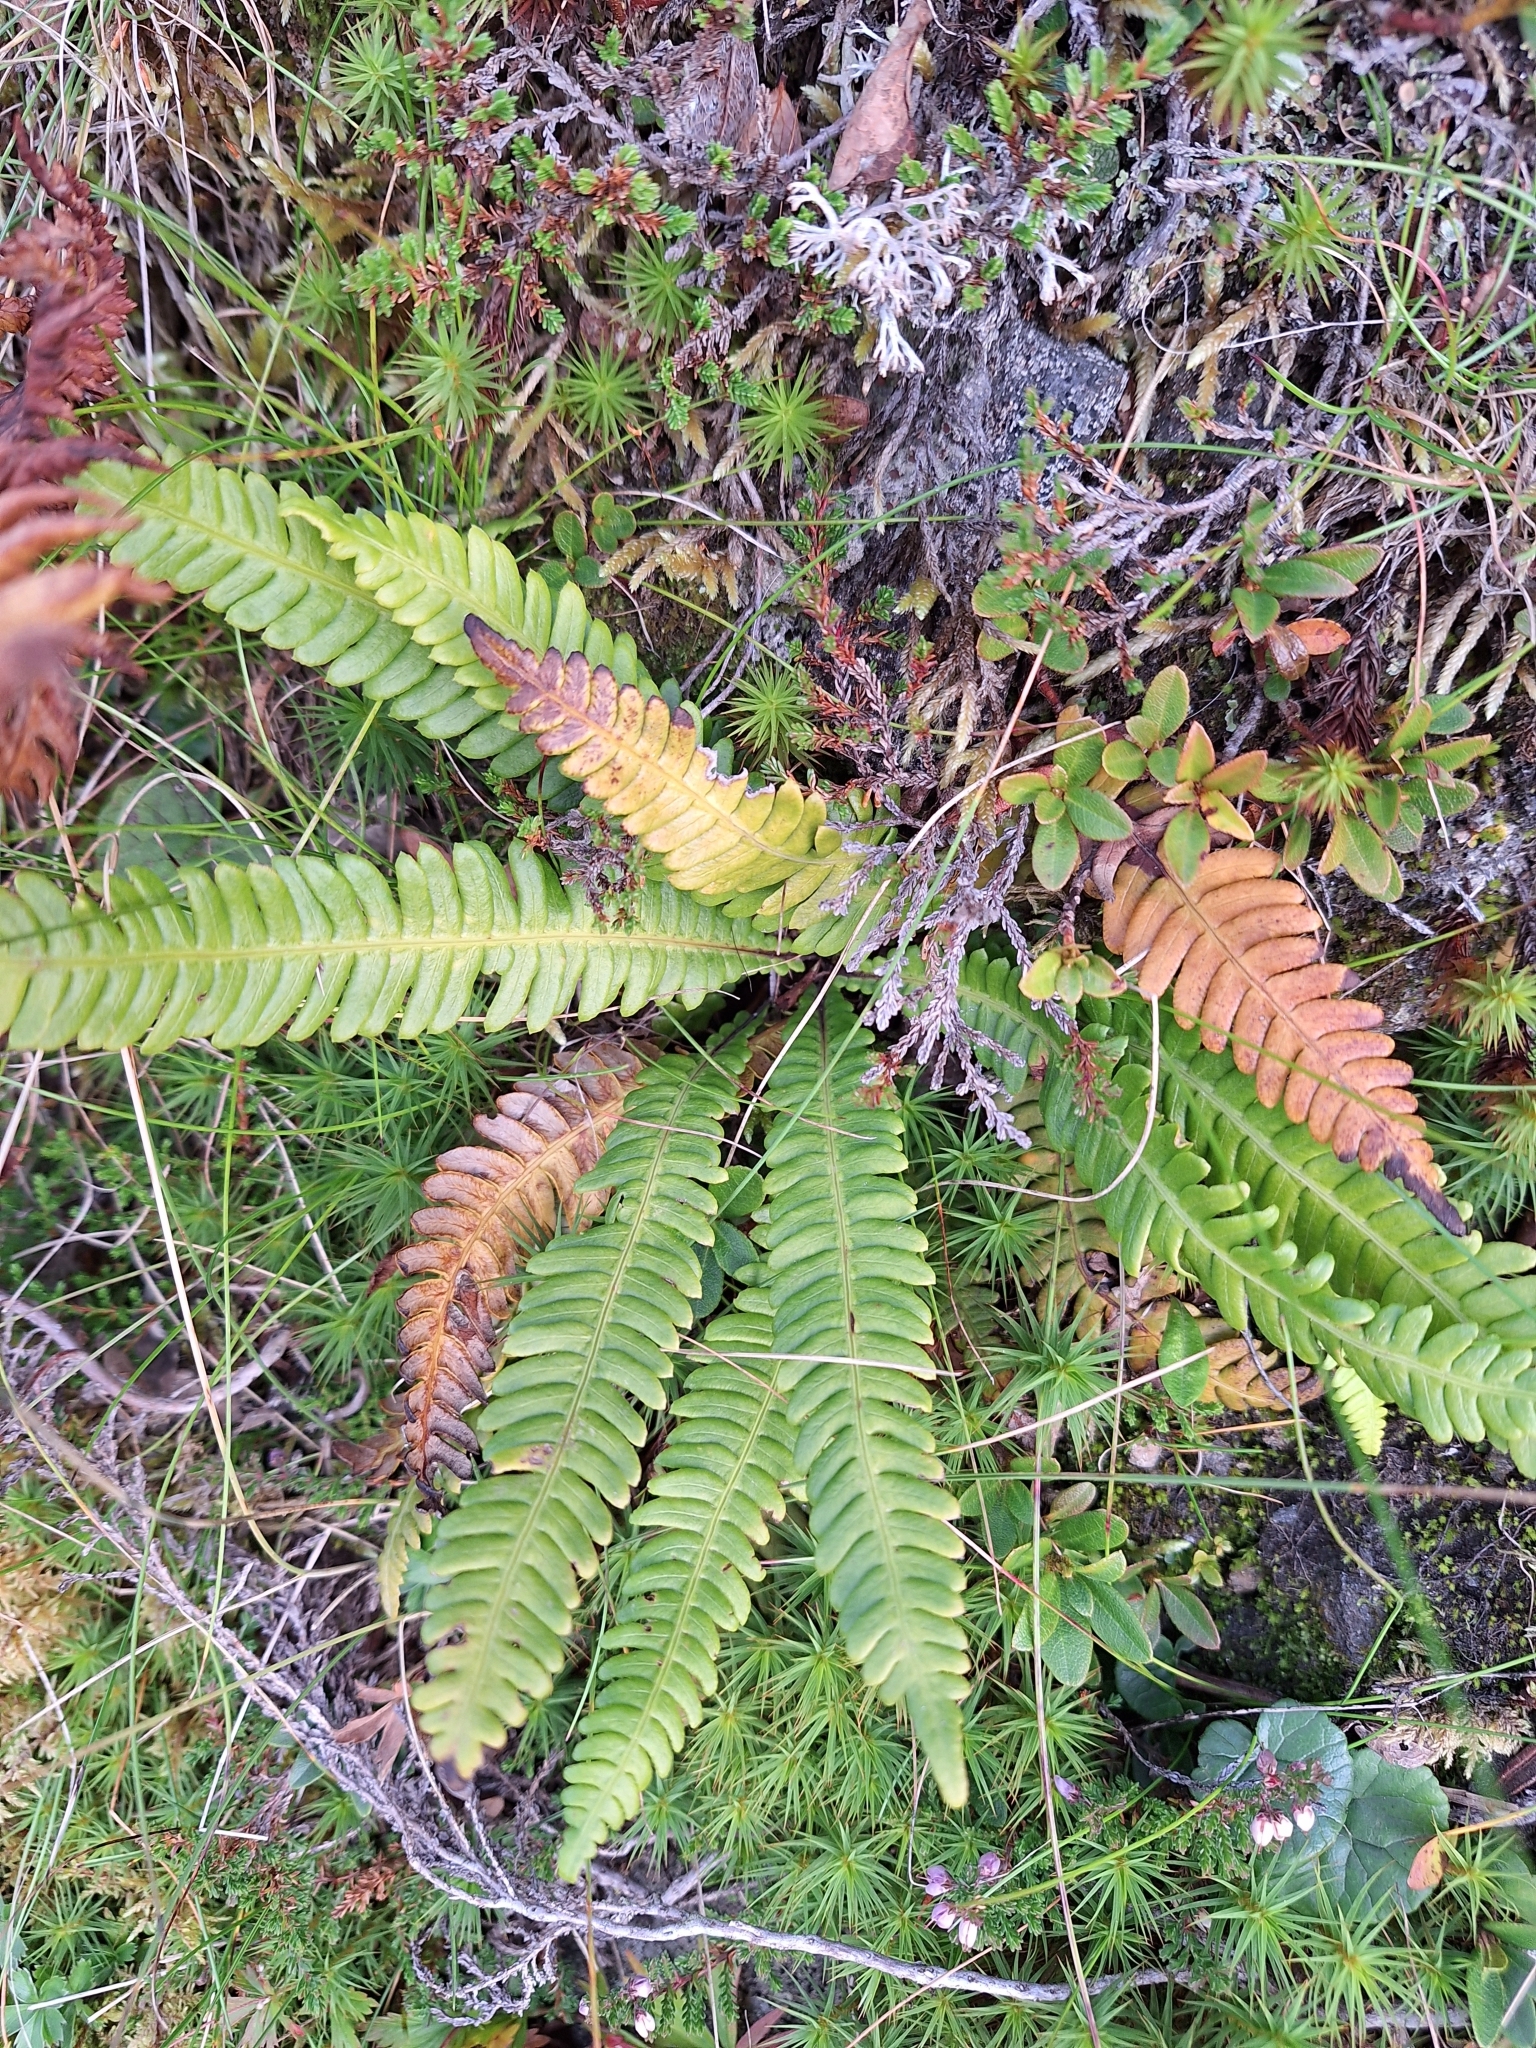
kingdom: Plantae
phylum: Tracheophyta
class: Polypodiopsida
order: Polypodiales
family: Blechnaceae
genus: Struthiopteris
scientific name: Struthiopteris spicant
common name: Deer fern
